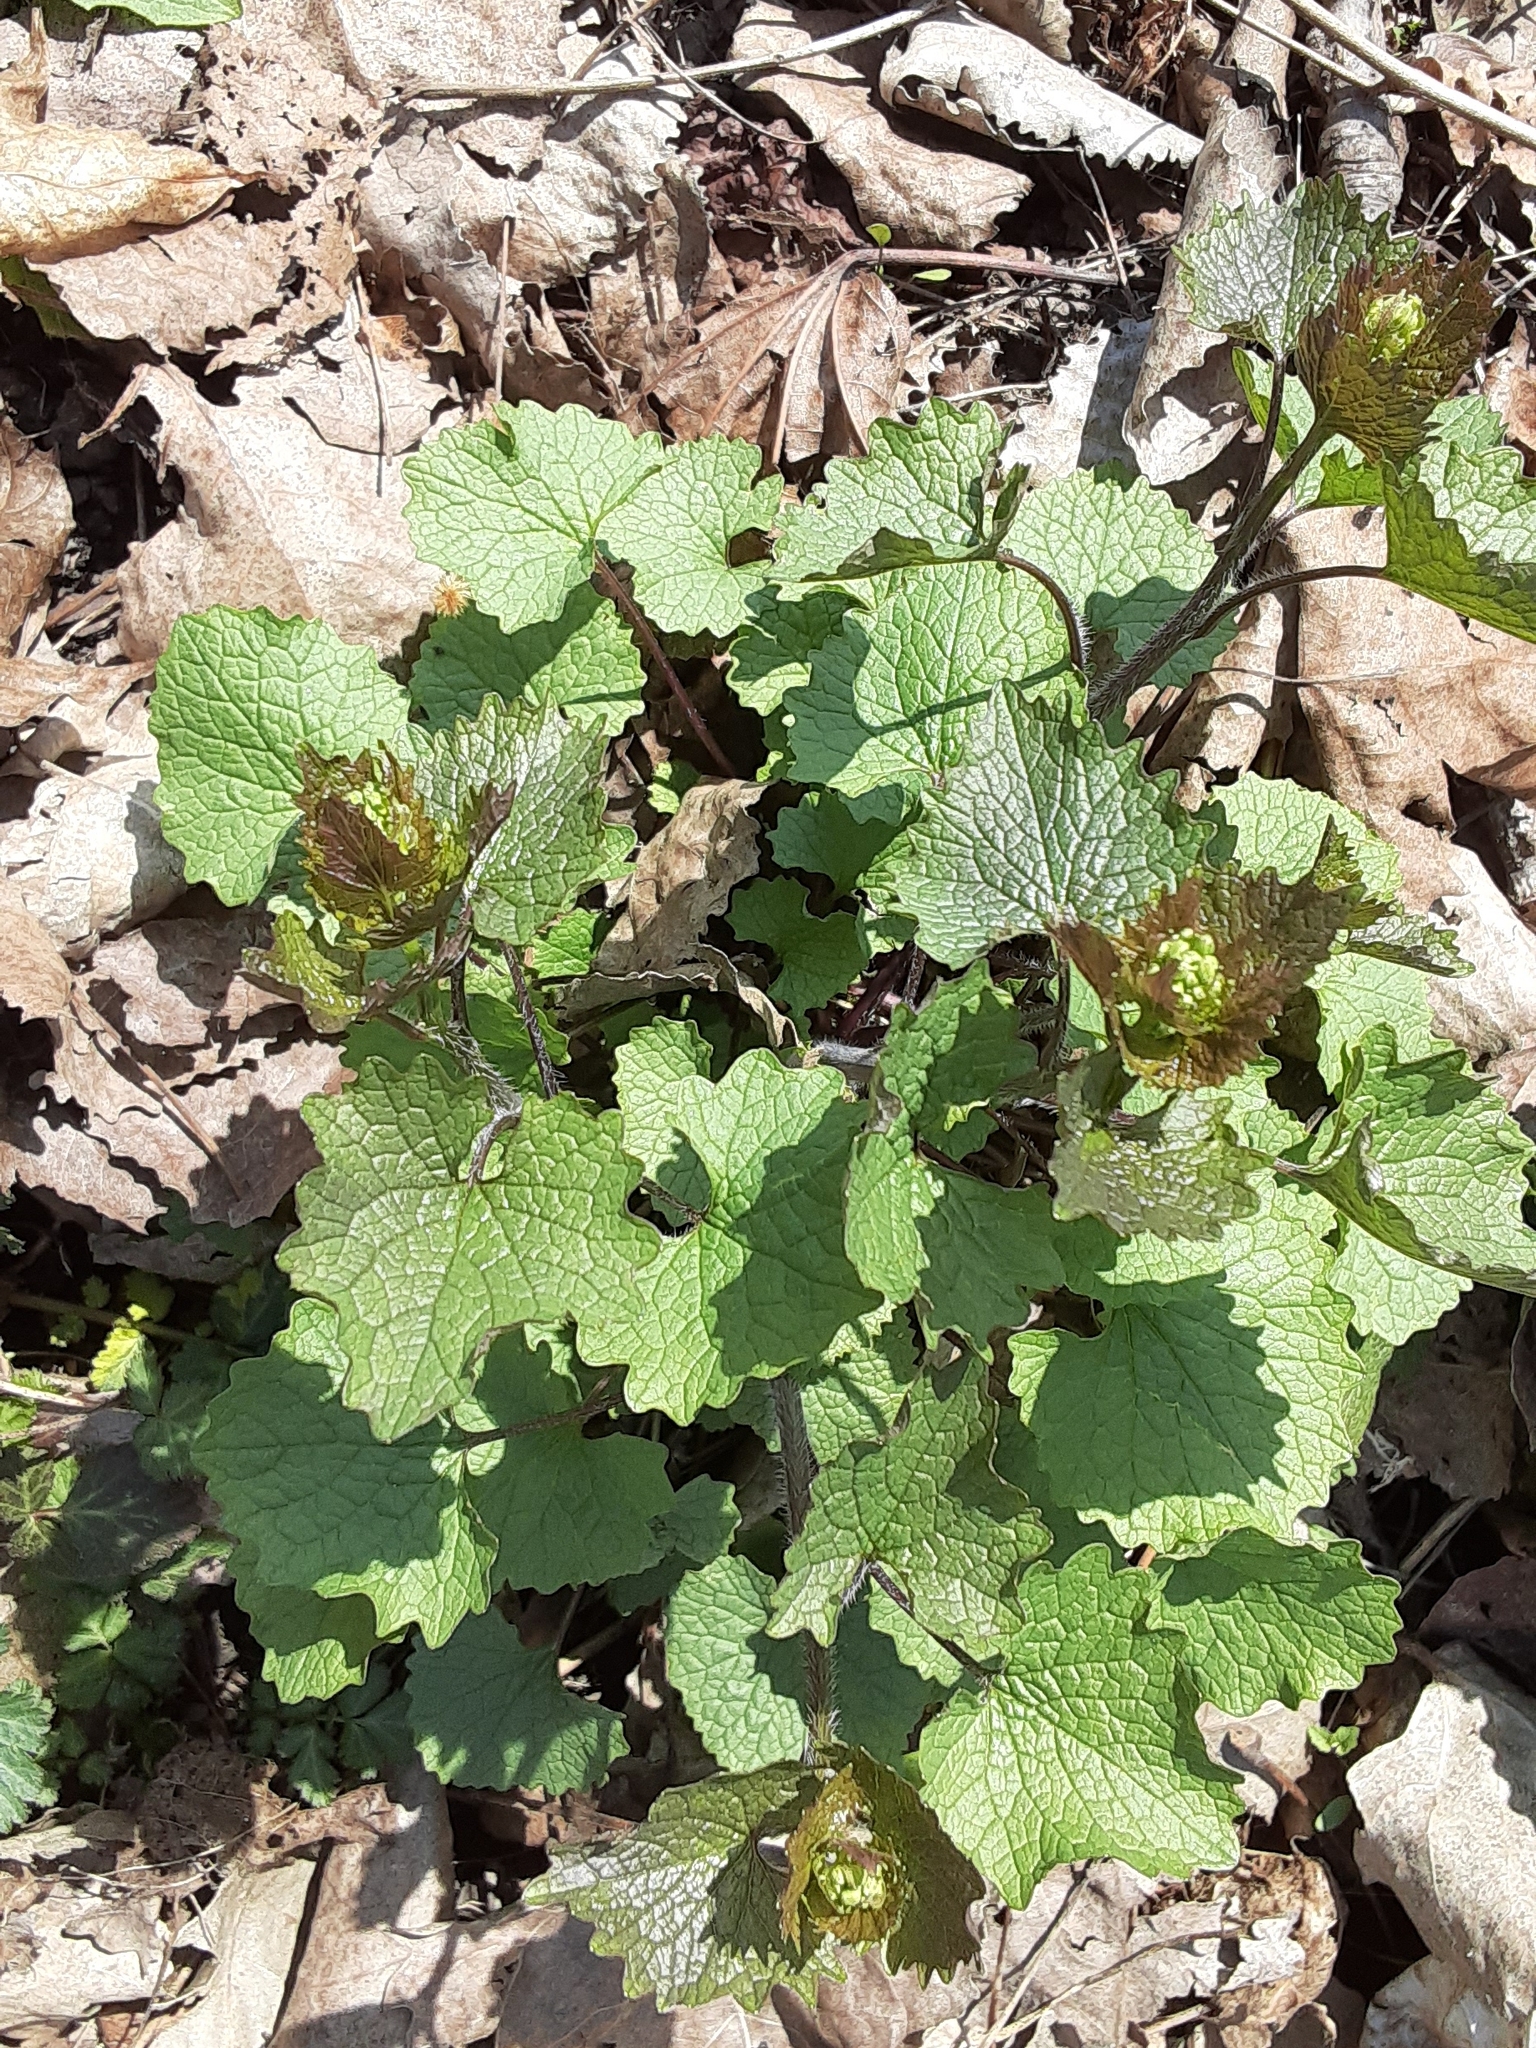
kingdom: Plantae
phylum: Tracheophyta
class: Magnoliopsida
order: Brassicales
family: Brassicaceae
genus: Alliaria
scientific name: Alliaria petiolata
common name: Garlic mustard
